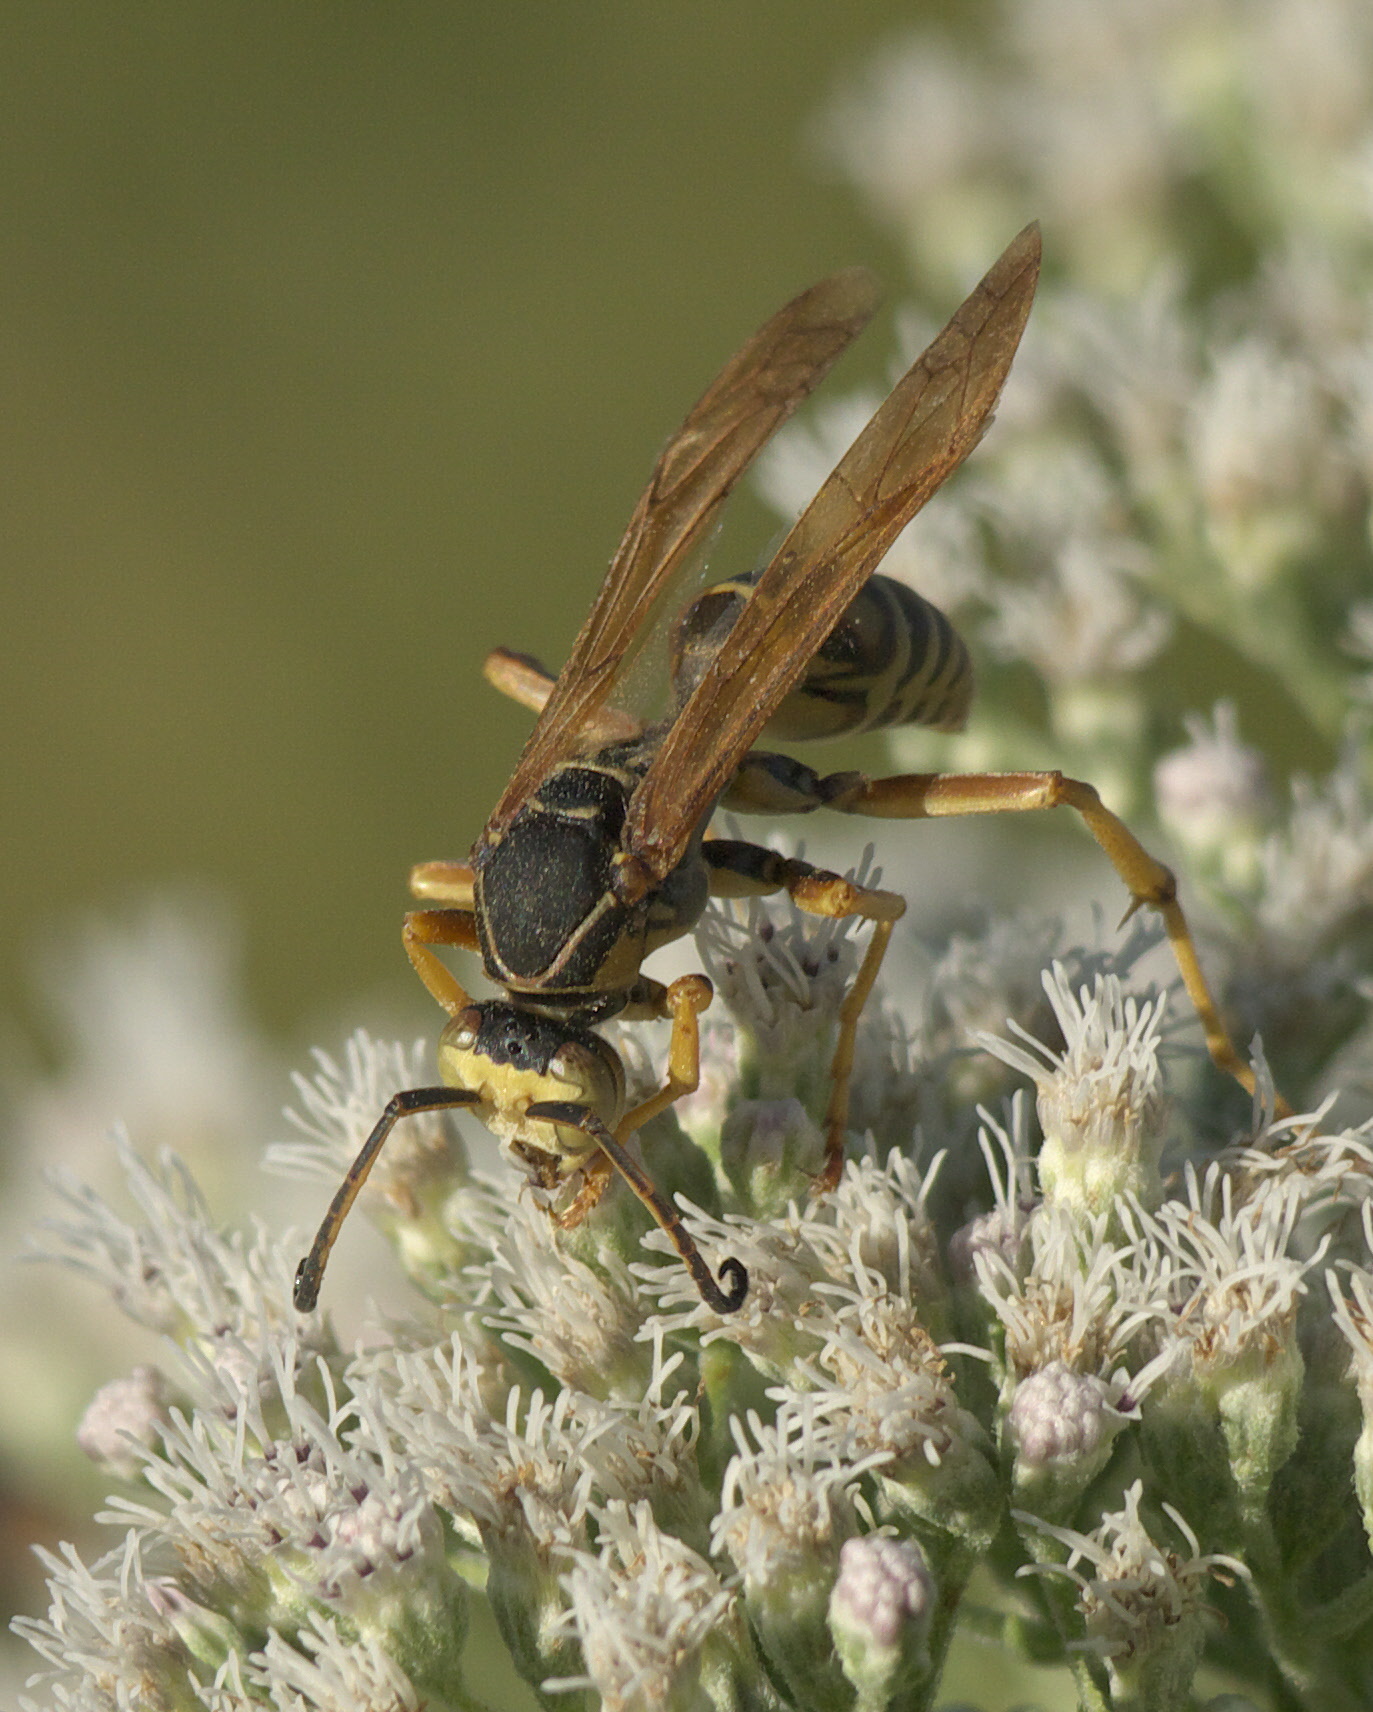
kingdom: Animalia
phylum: Arthropoda
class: Insecta
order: Hymenoptera
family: Eumenidae
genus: Polistes
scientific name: Polistes fuscatus
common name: Dark paper wasp
